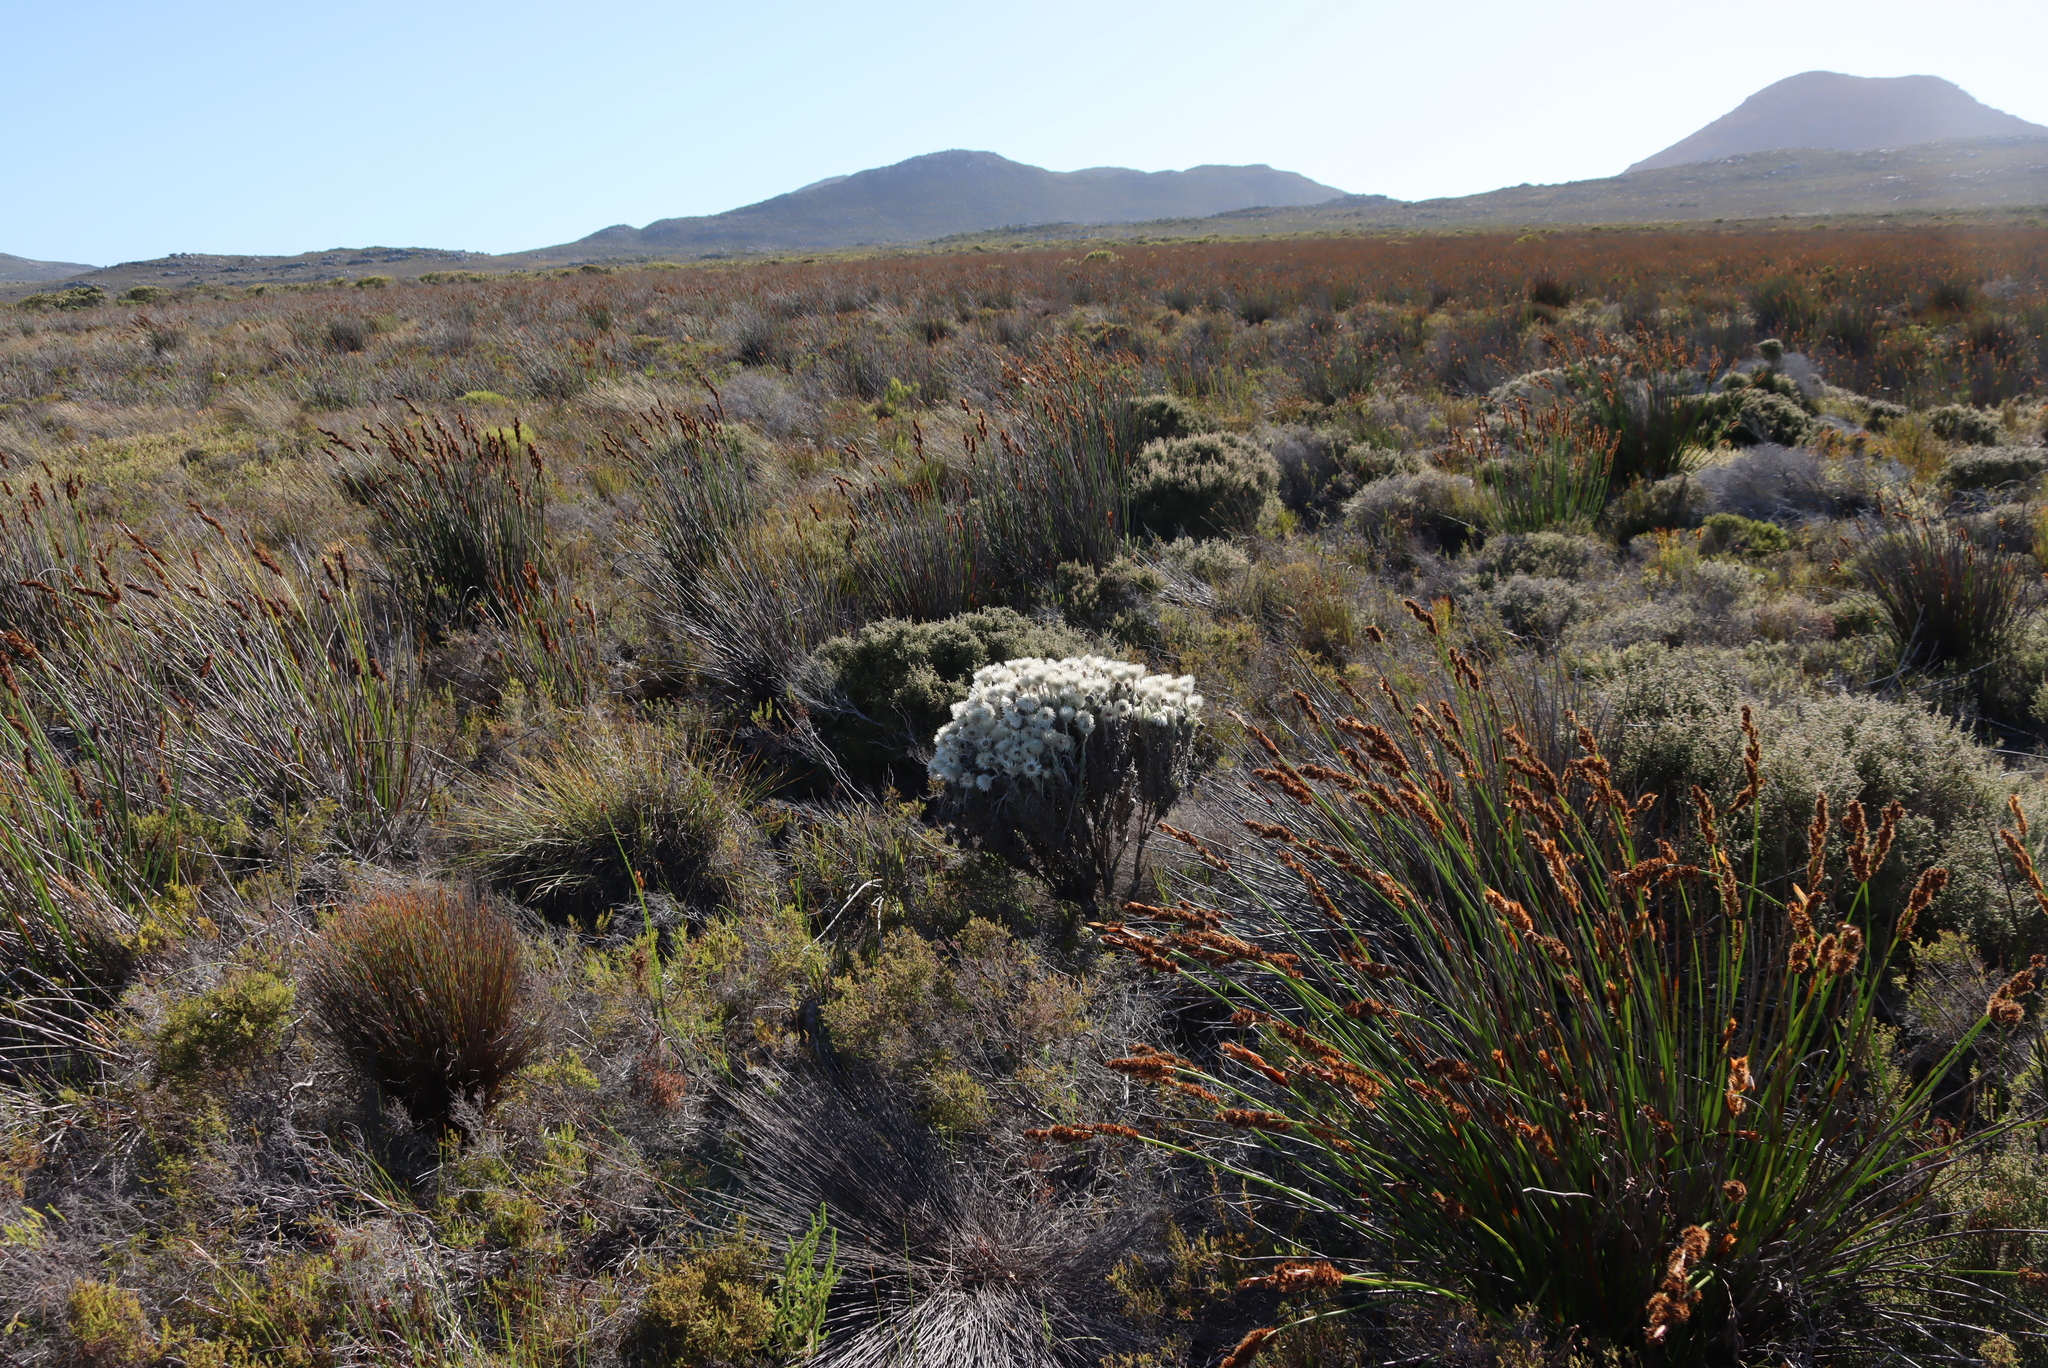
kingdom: Plantae
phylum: Tracheophyta
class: Magnoliopsida
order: Asterales
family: Asteraceae
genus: Syncarpha
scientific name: Syncarpha vestita
